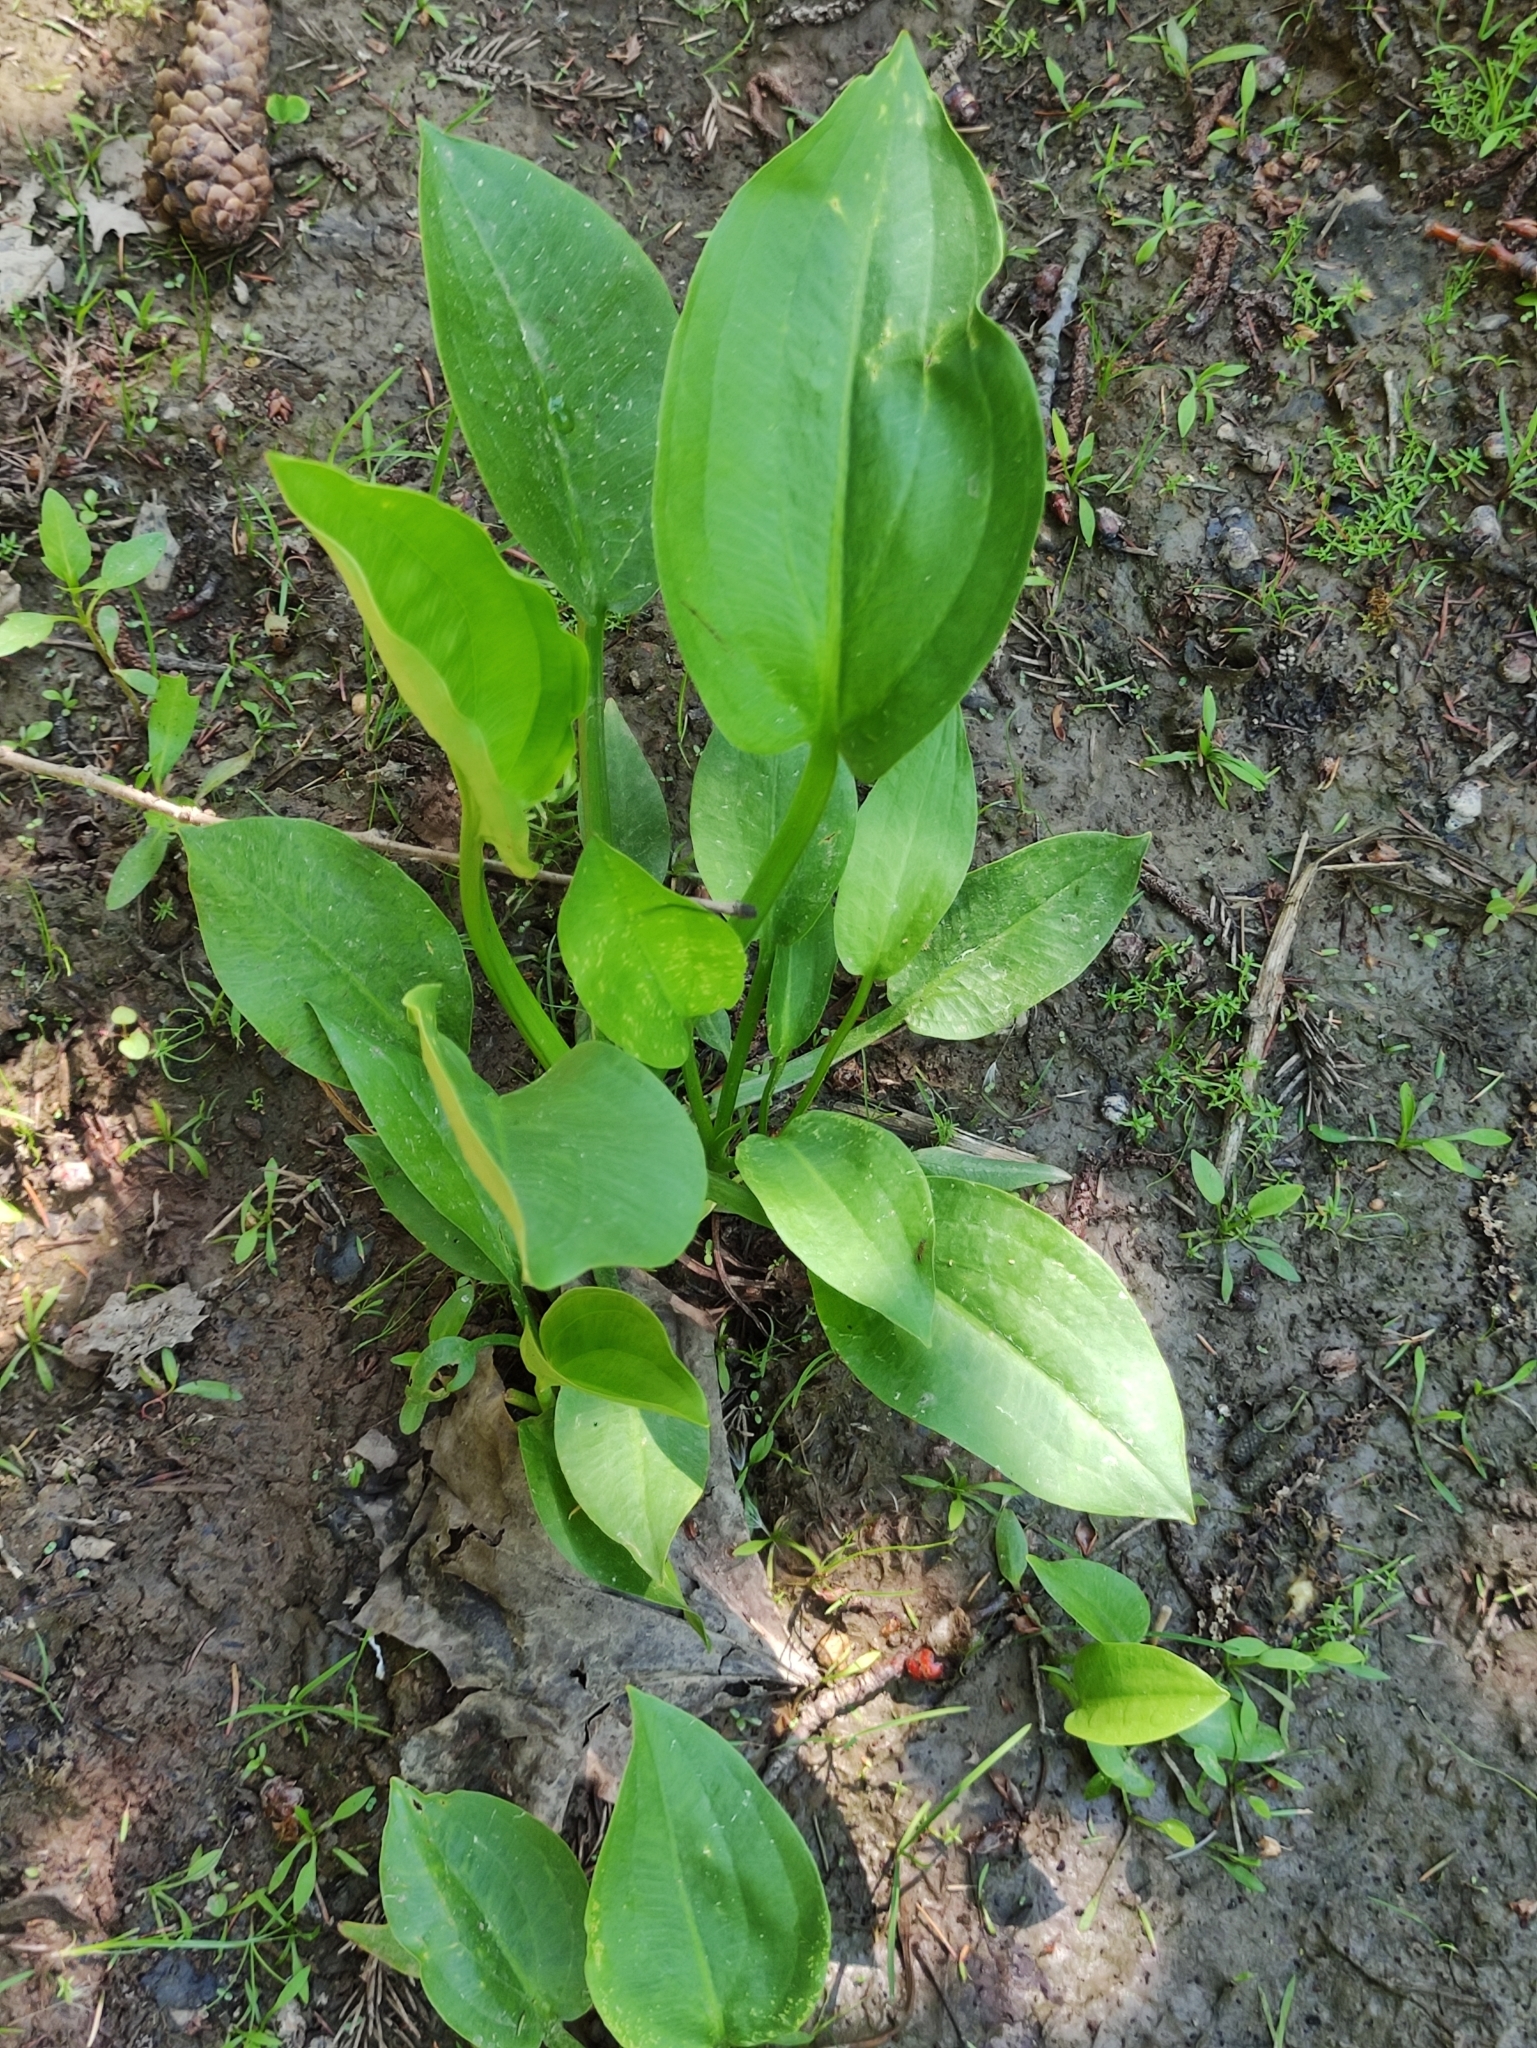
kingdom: Plantae
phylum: Tracheophyta
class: Liliopsida
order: Alismatales
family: Alismataceae
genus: Alisma
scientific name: Alisma plantago-aquatica
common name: Water-plantain
